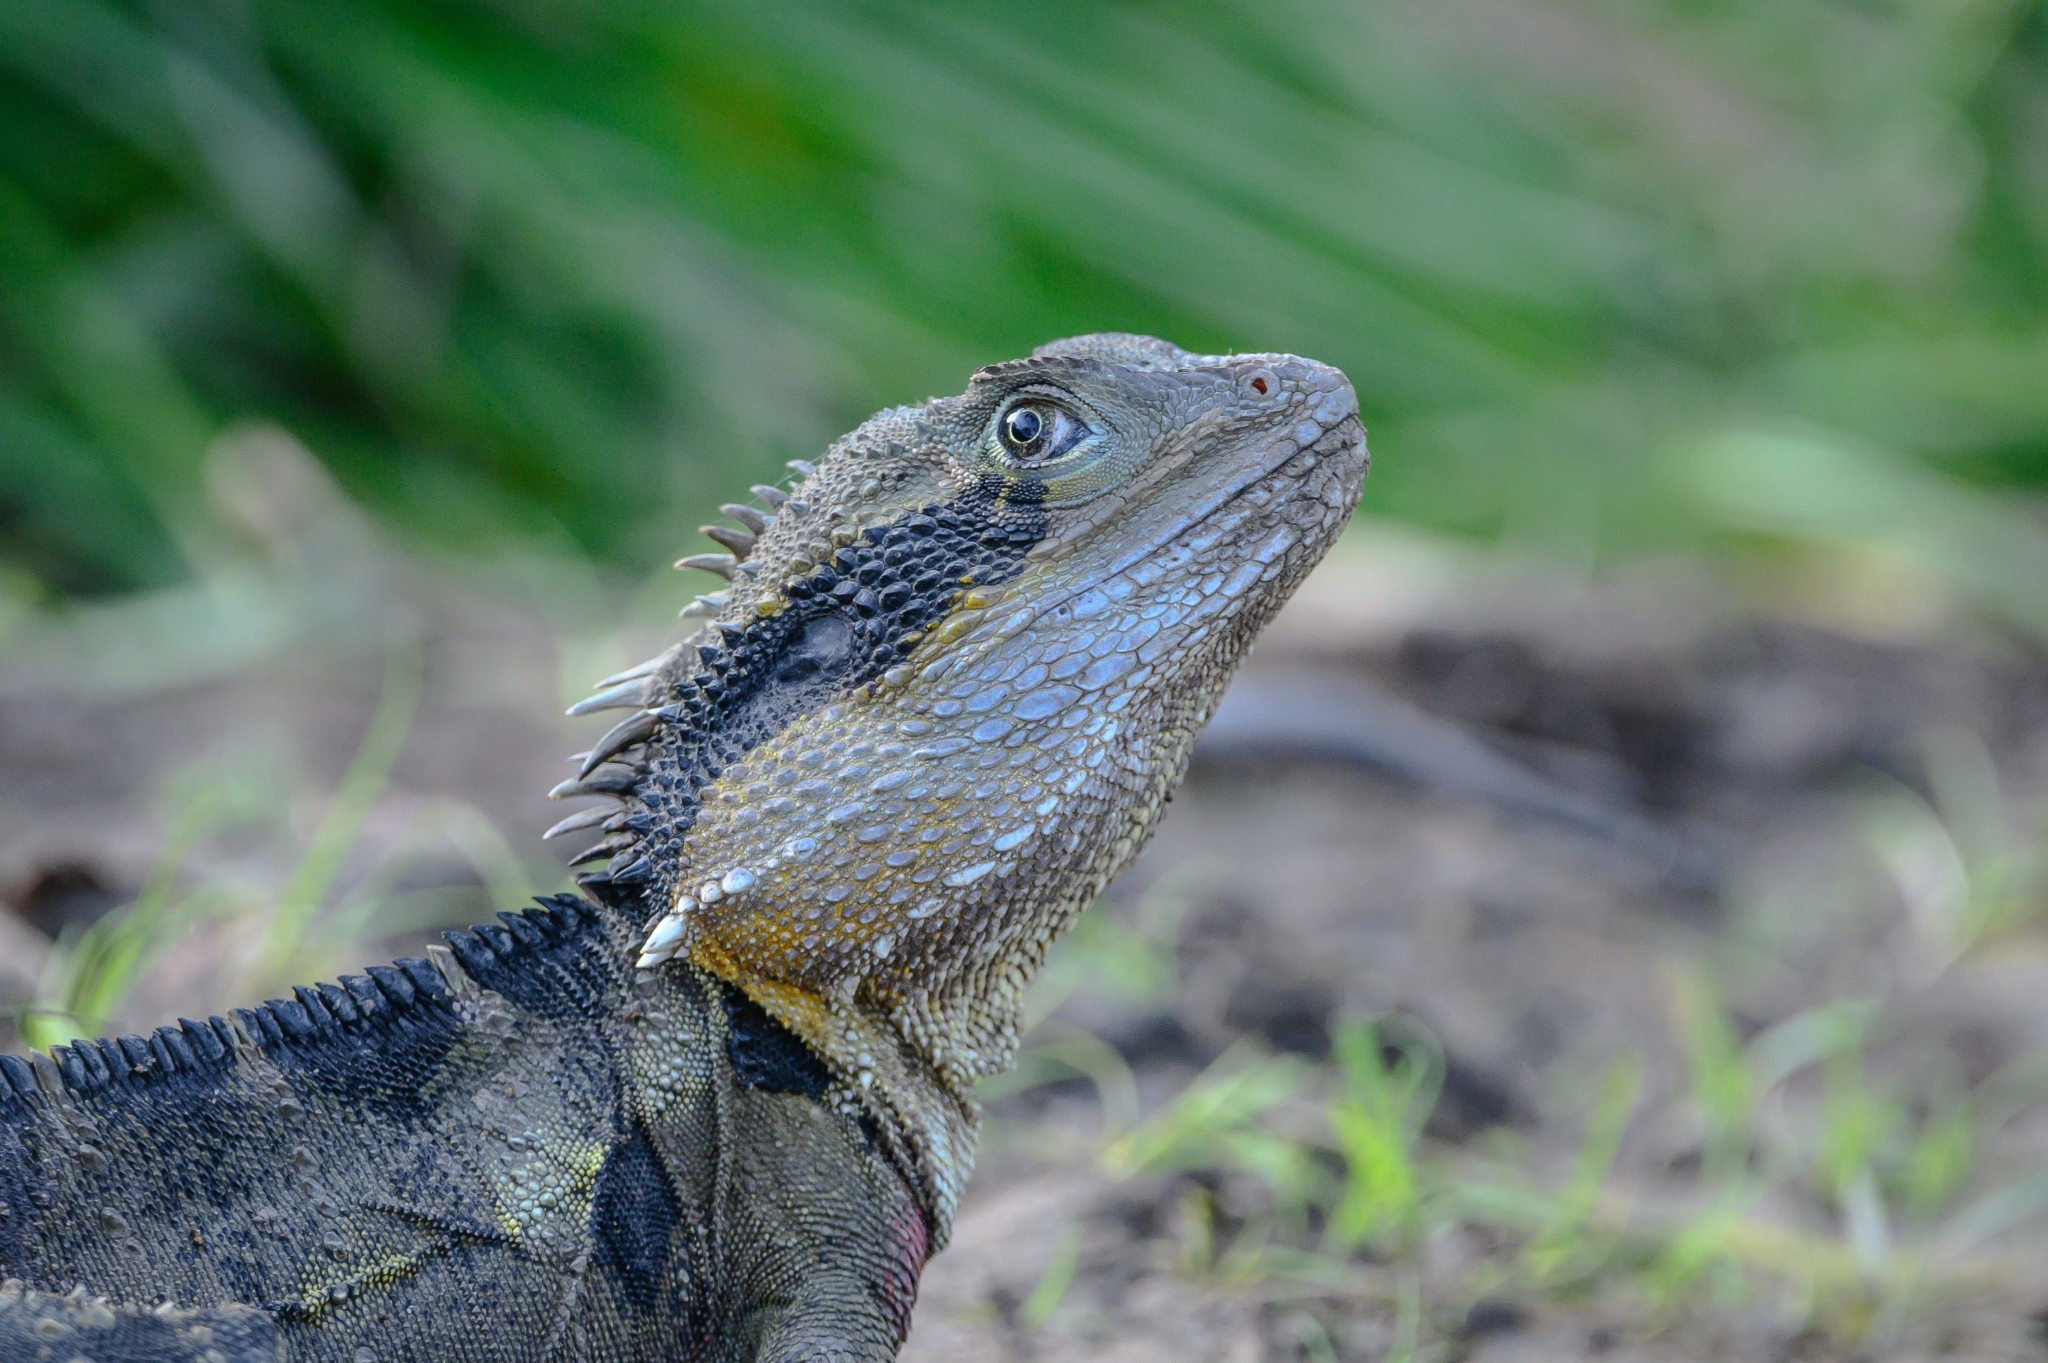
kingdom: Animalia
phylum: Chordata
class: Squamata
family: Agamidae
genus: Intellagama
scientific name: Intellagama lesueurii
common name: Eastern water dragon
